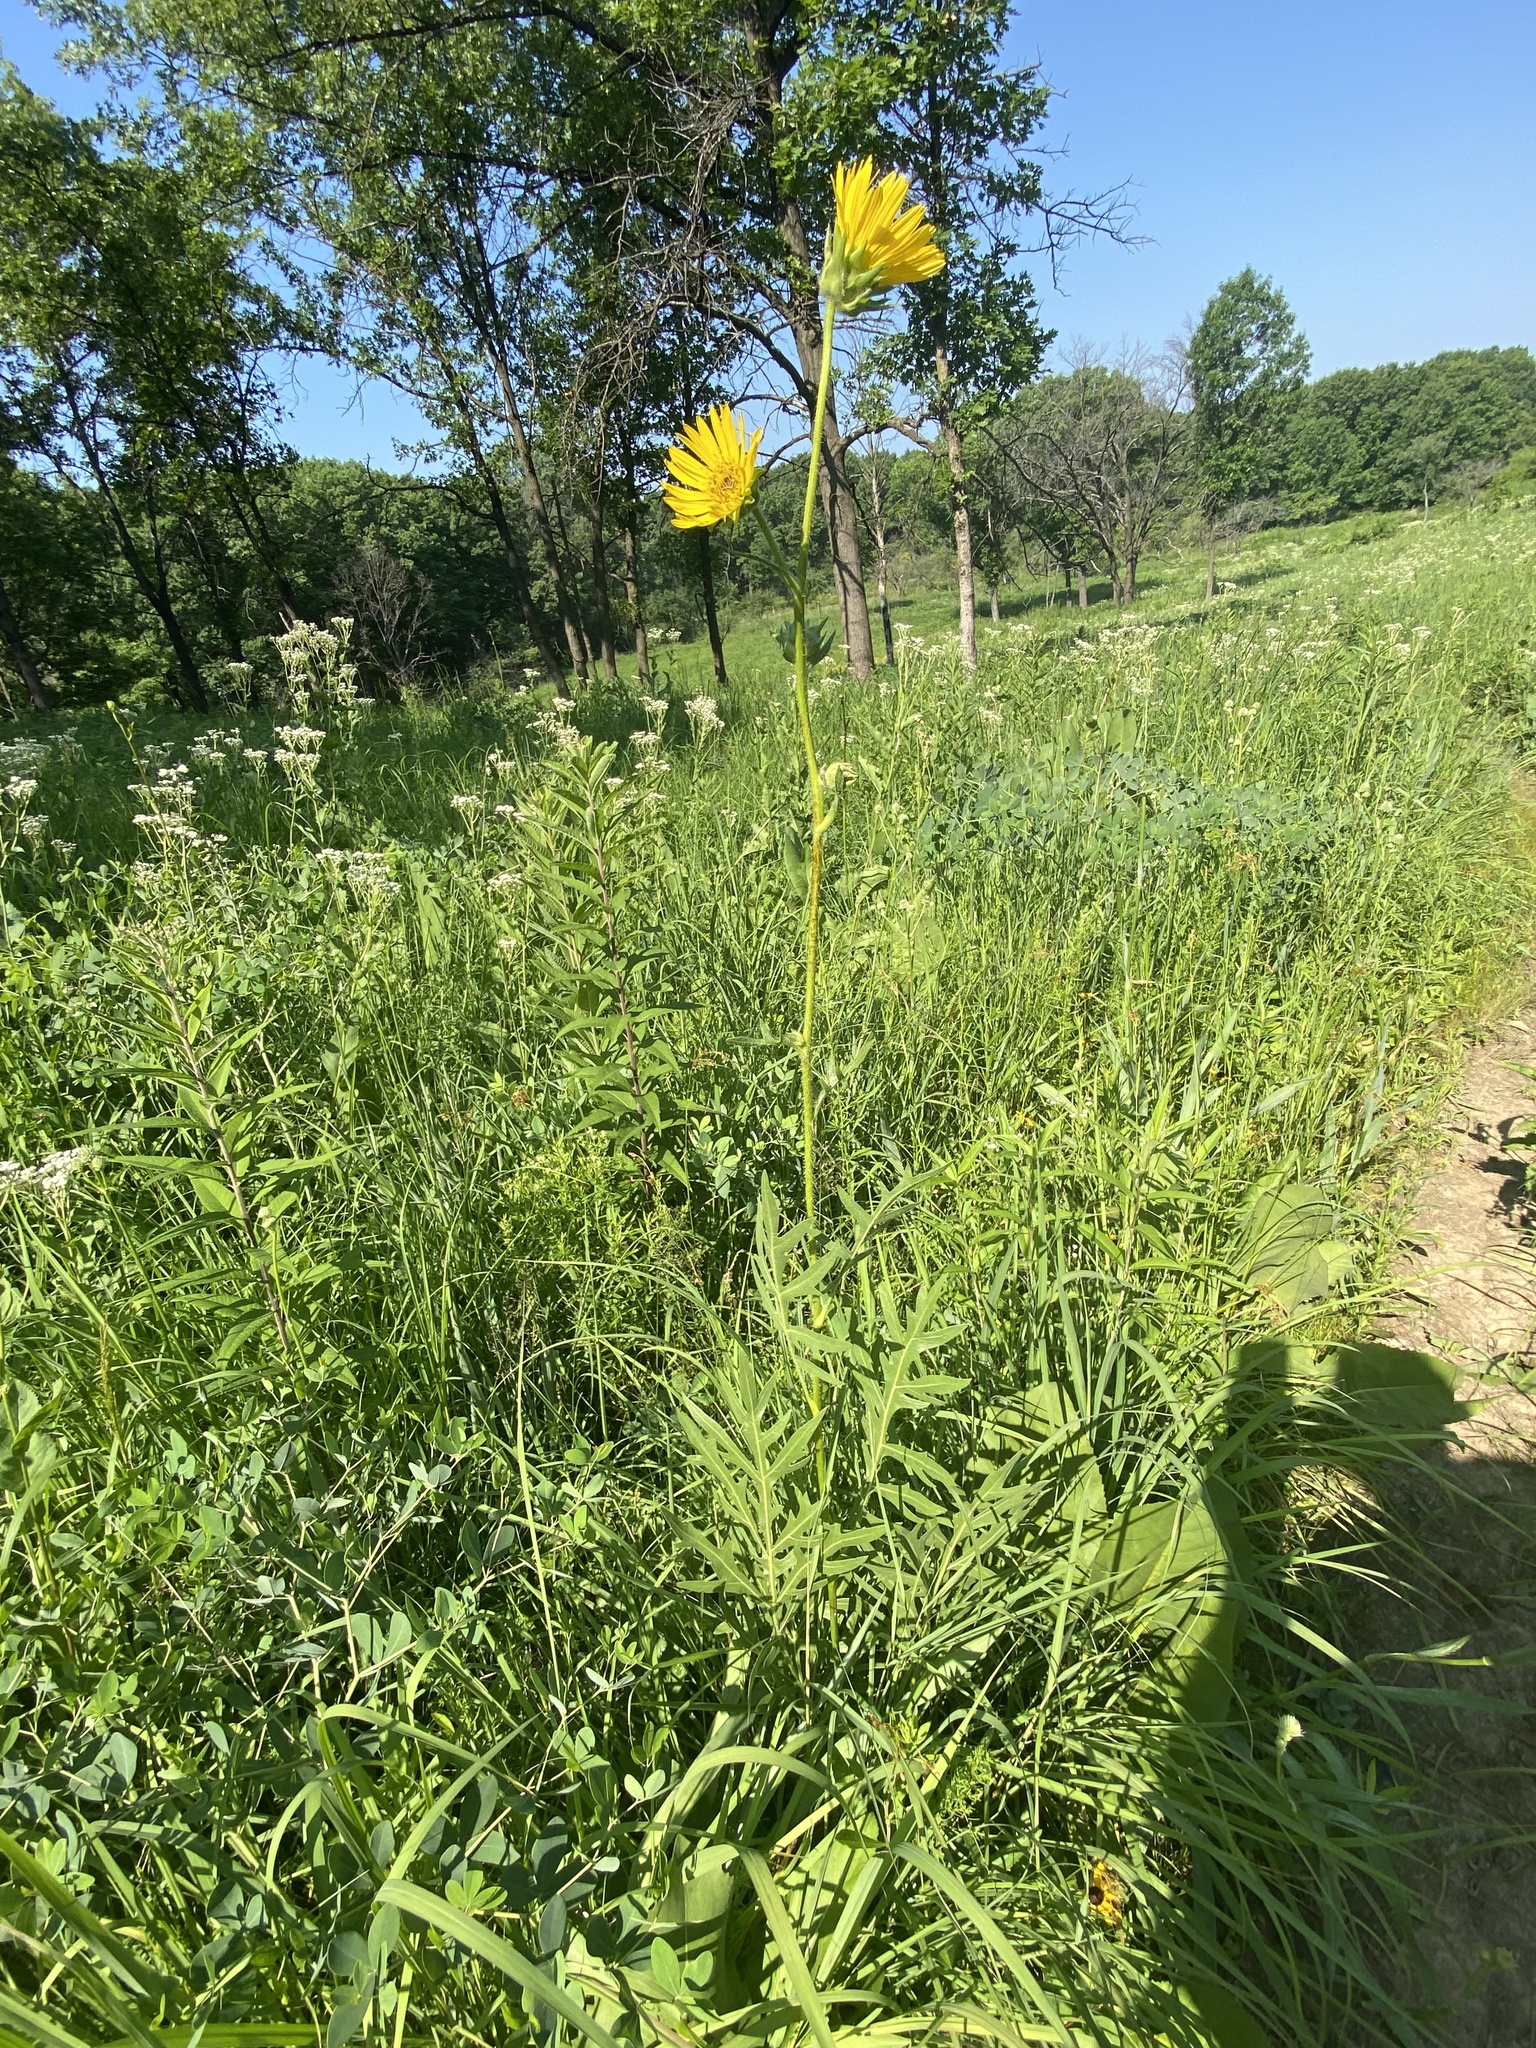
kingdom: Plantae
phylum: Tracheophyta
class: Magnoliopsida
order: Asterales
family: Asteraceae
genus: Silphium
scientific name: Silphium laciniatum
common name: Polarplant
